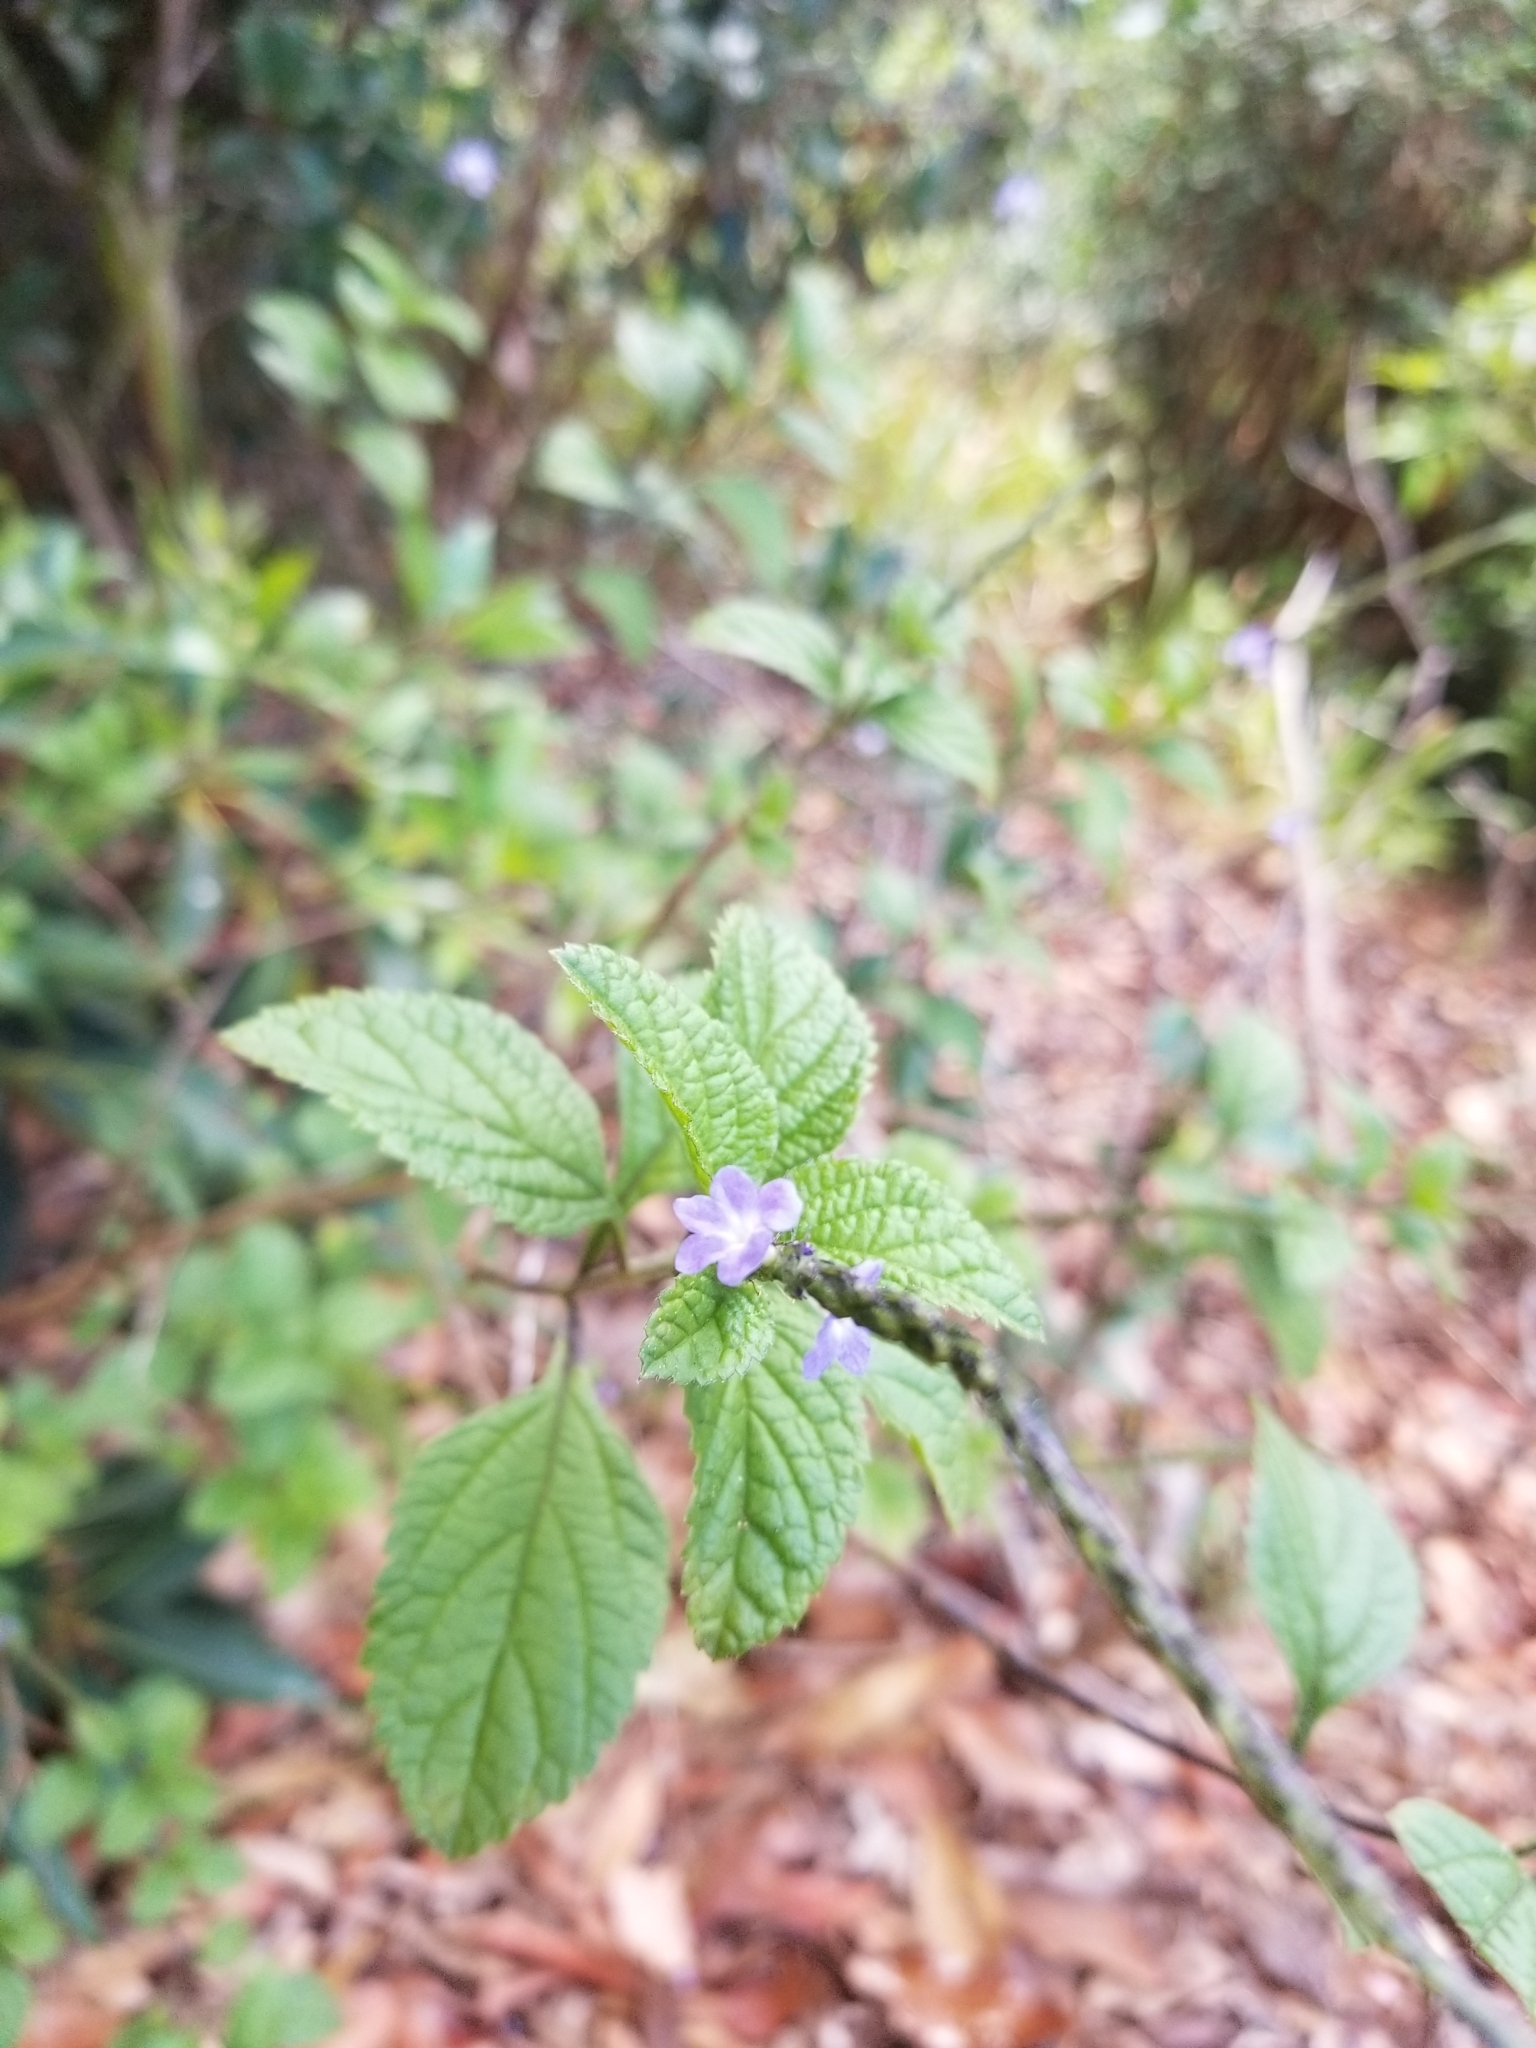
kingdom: Plantae
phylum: Tracheophyta
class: Magnoliopsida
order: Lamiales
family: Verbenaceae
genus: Stachytarpheta
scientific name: Stachytarpheta cayennensis
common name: Cayenne porterweed
